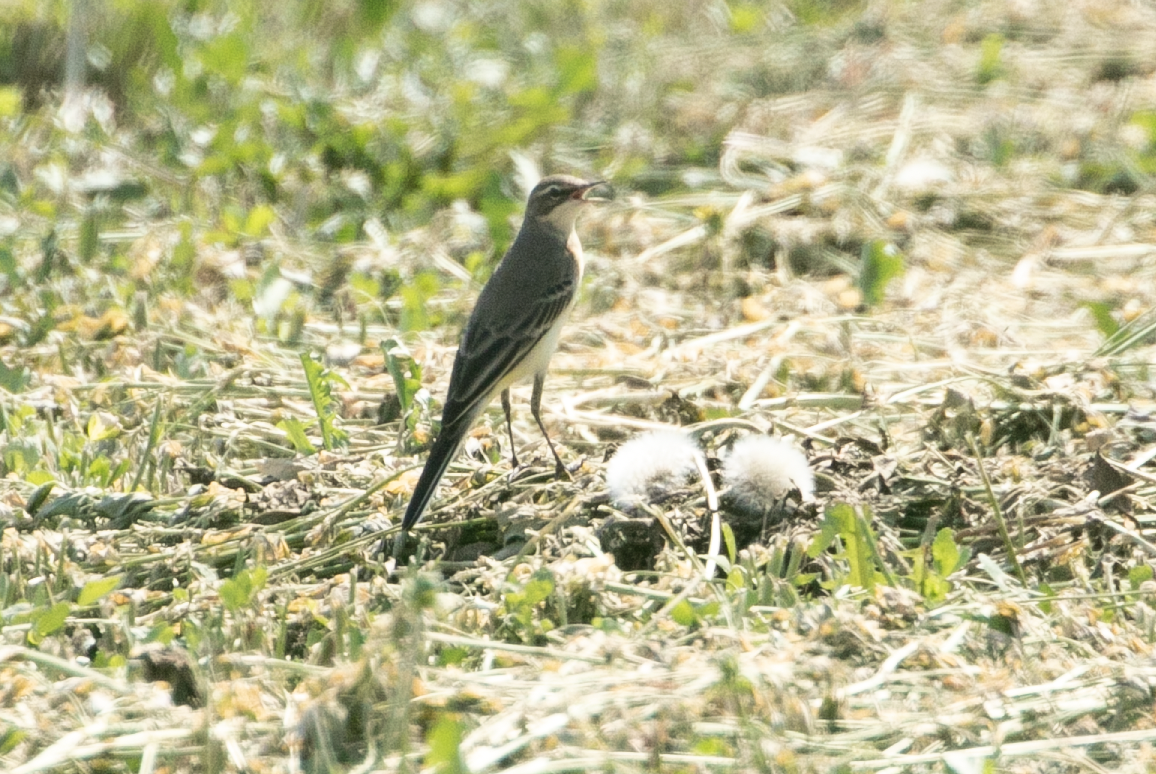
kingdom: Animalia
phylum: Chordata
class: Aves
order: Passeriformes
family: Motacillidae
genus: Motacilla
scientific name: Motacilla flava
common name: Western yellow wagtail
